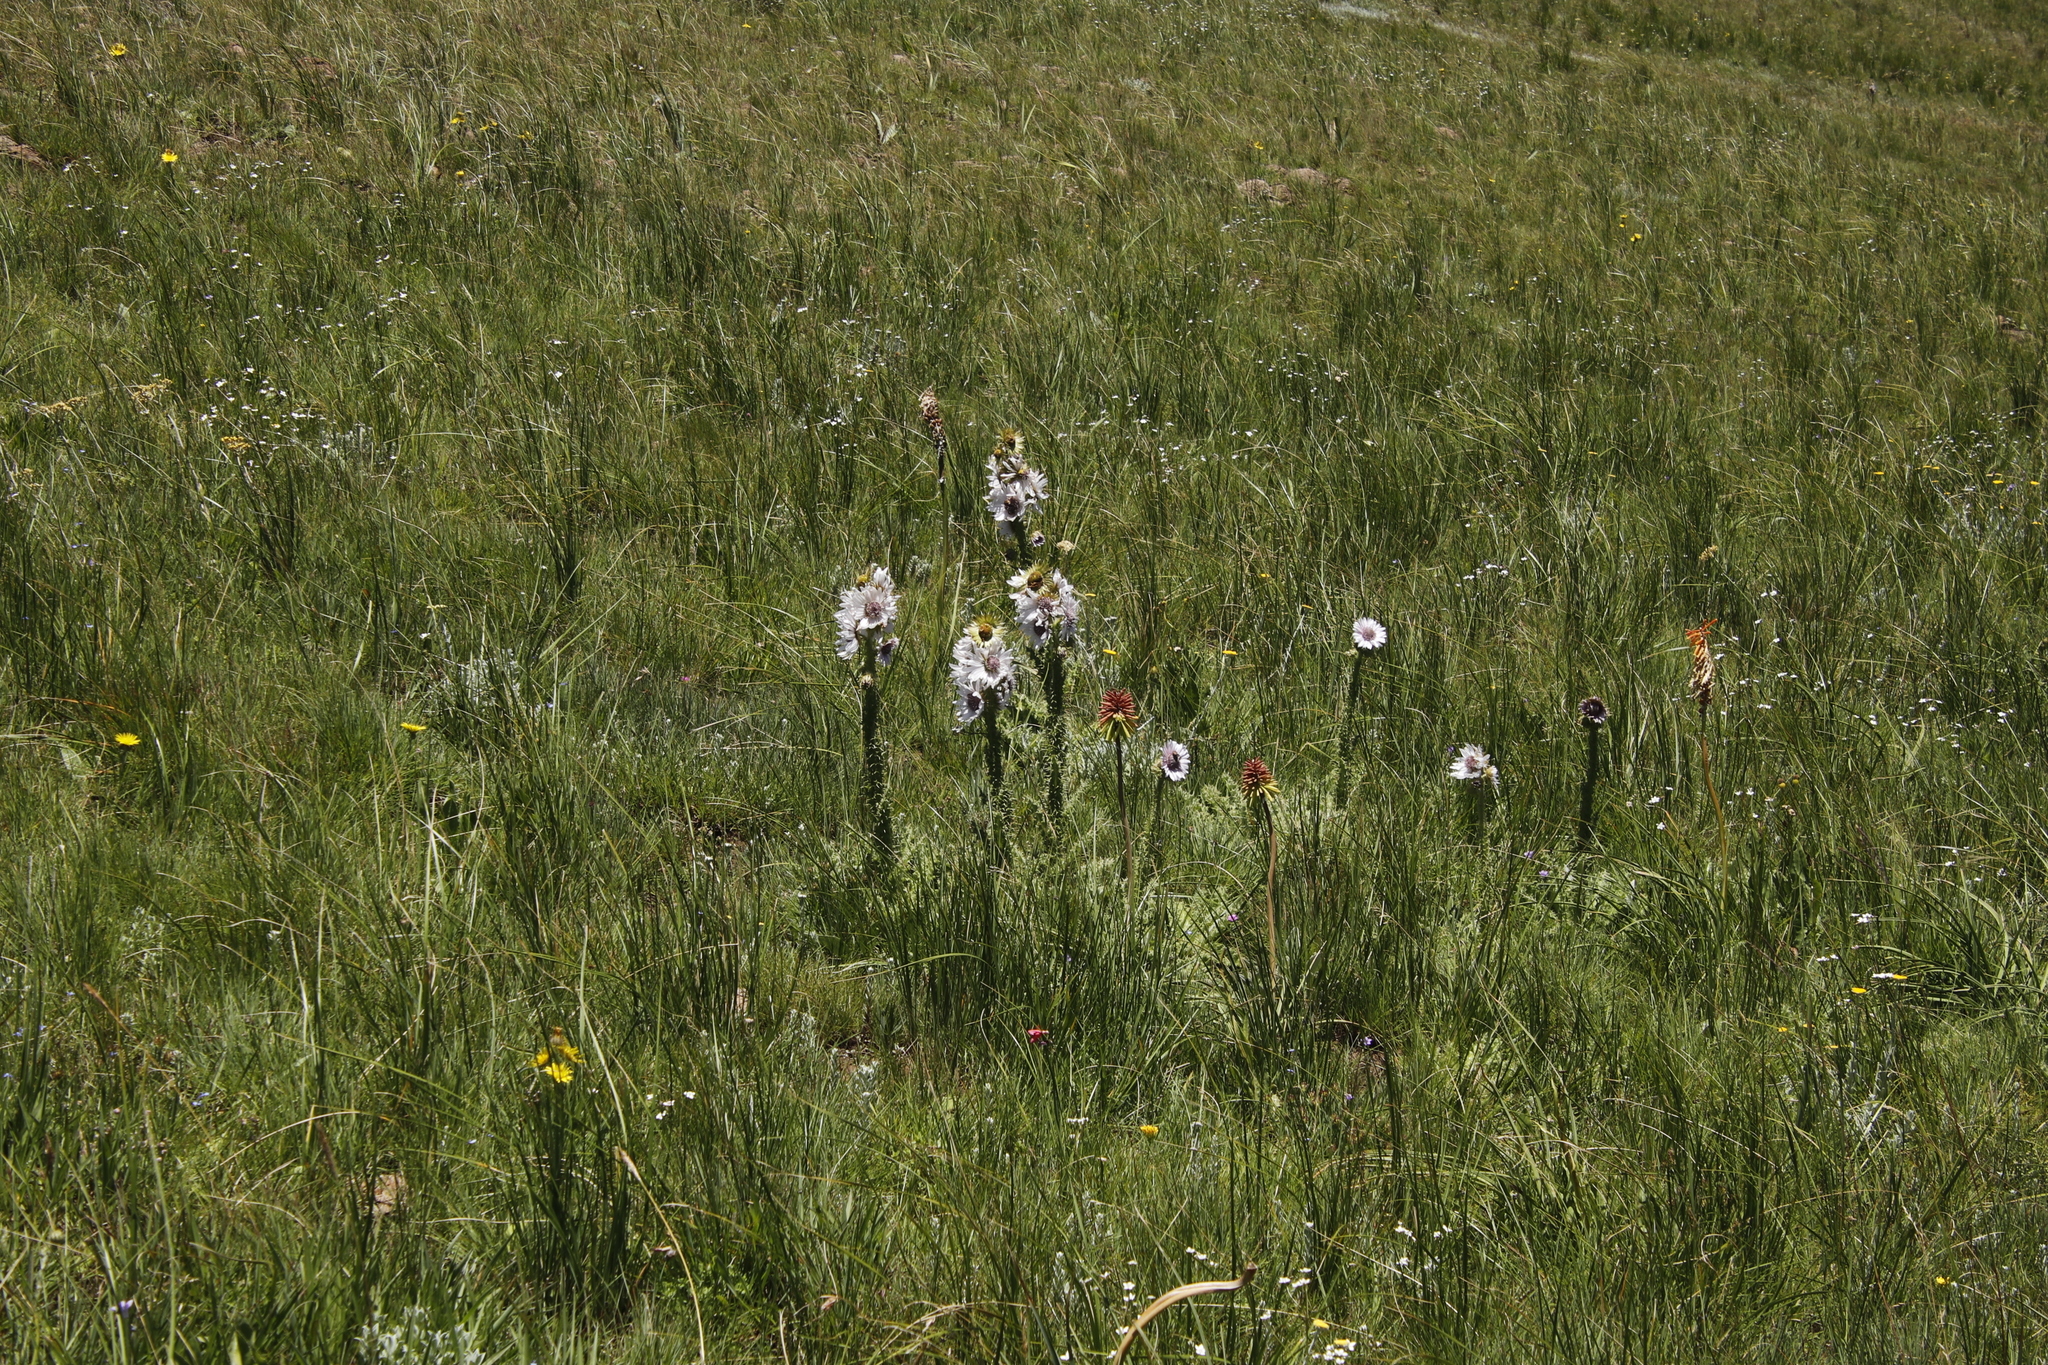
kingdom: Plantae
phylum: Tracheophyta
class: Magnoliopsida
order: Asterales
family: Asteraceae
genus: Berkheya
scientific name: Berkheya purpurea
